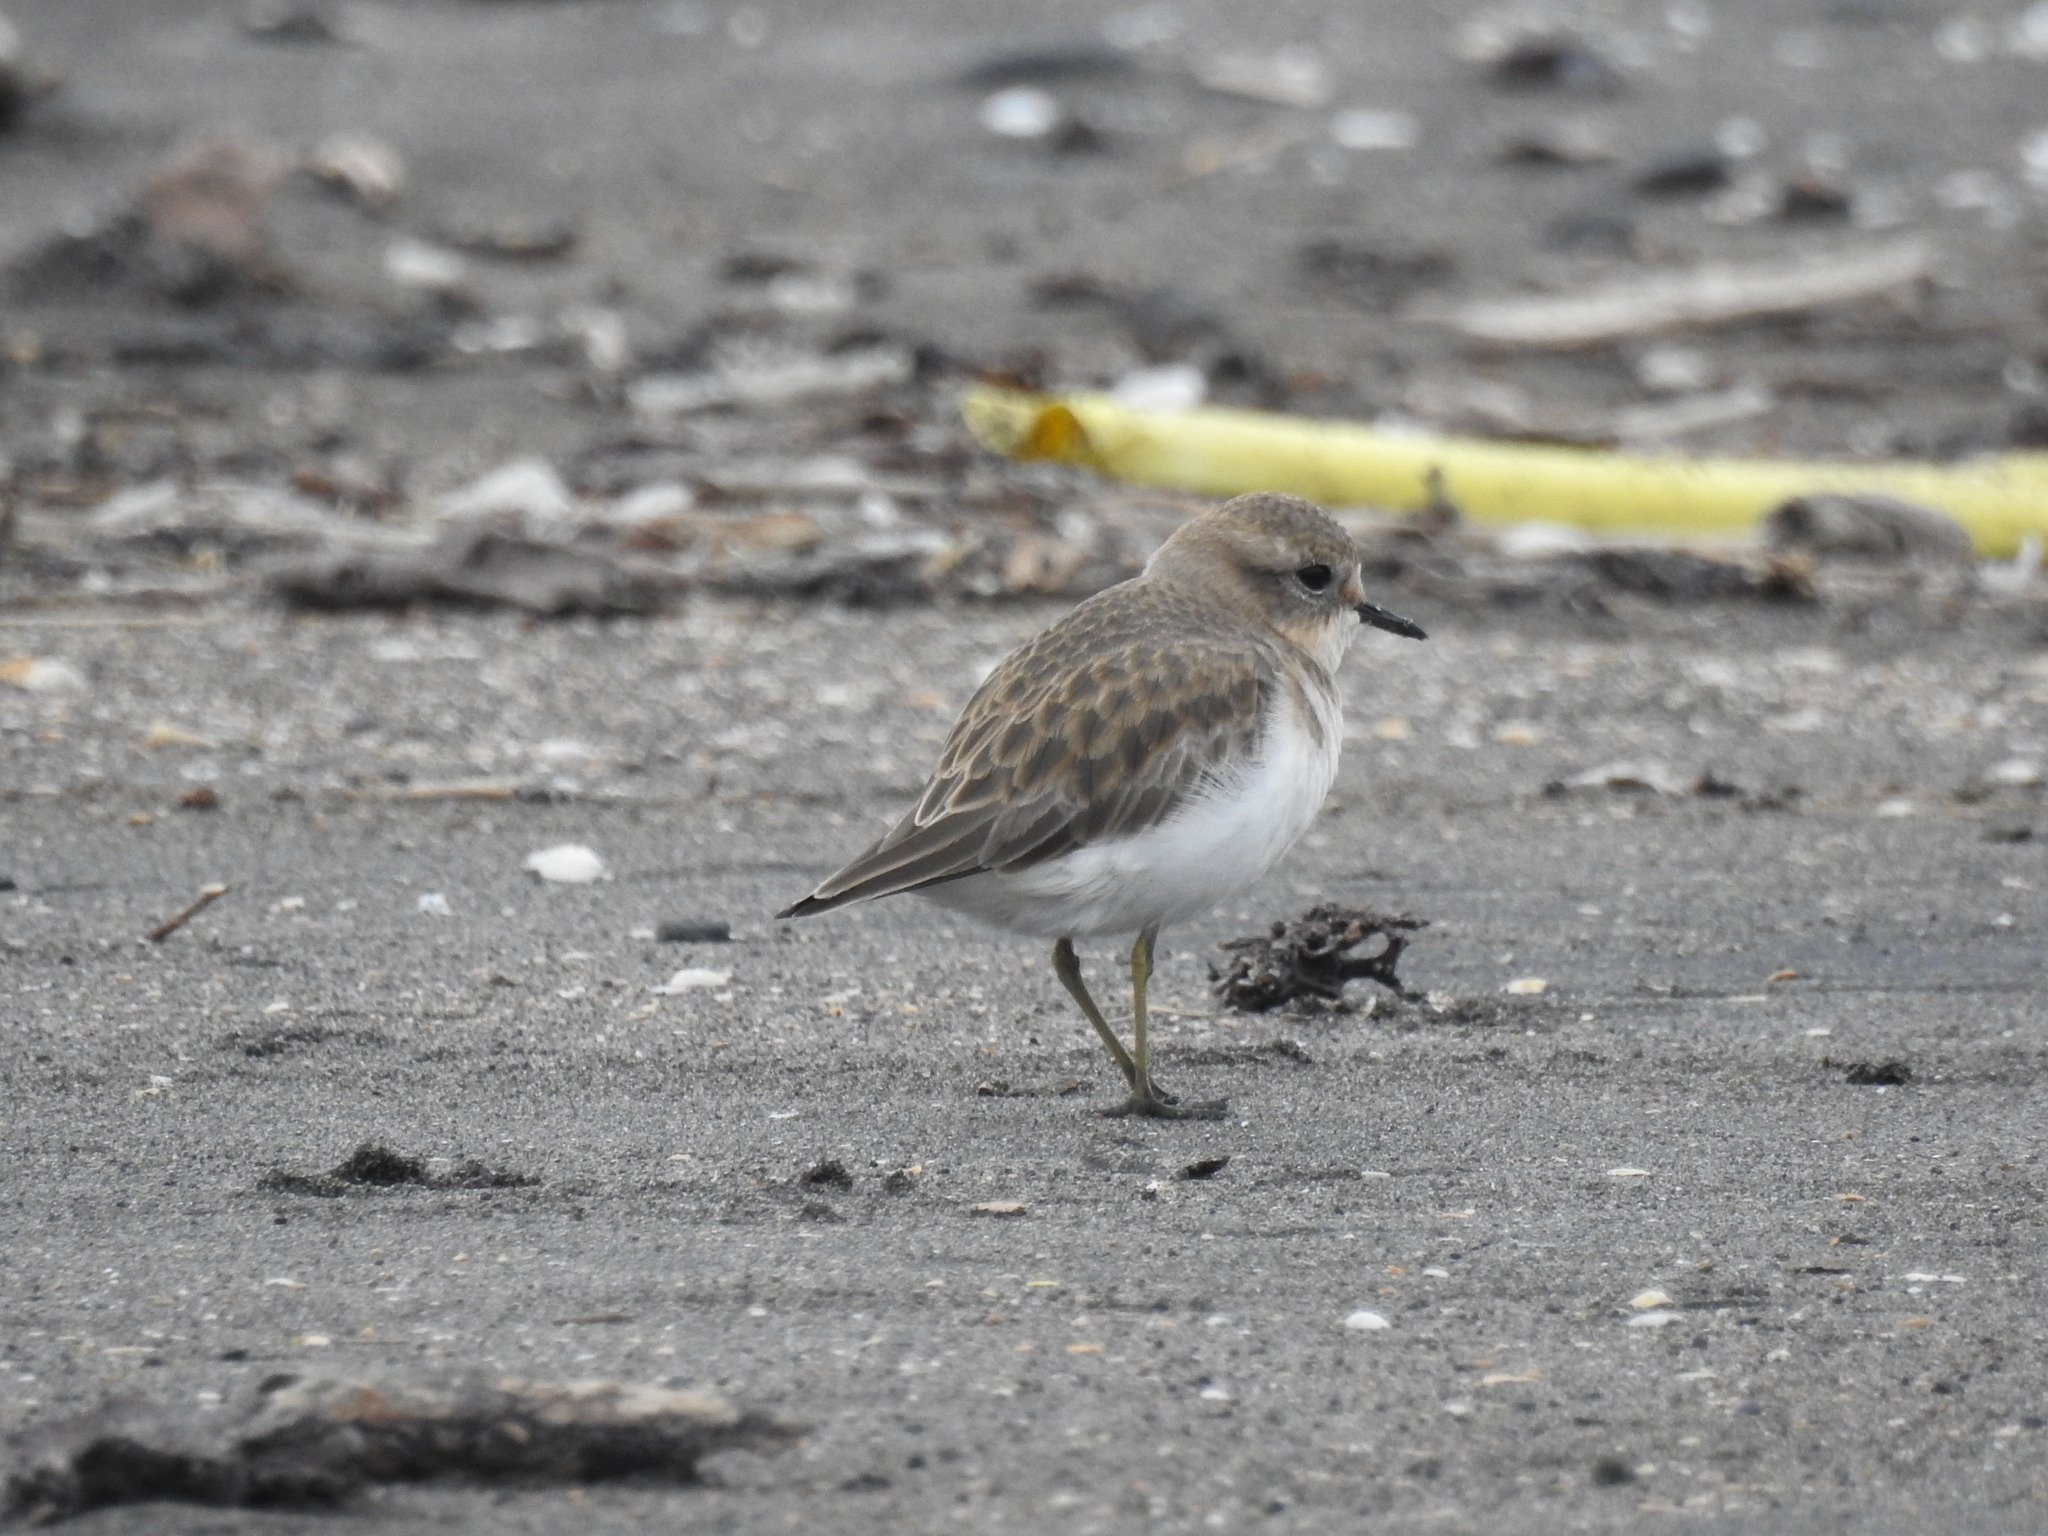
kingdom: Animalia
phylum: Chordata
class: Aves
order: Charadriiformes
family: Charadriidae
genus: Anarhynchus
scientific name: Anarhynchus
